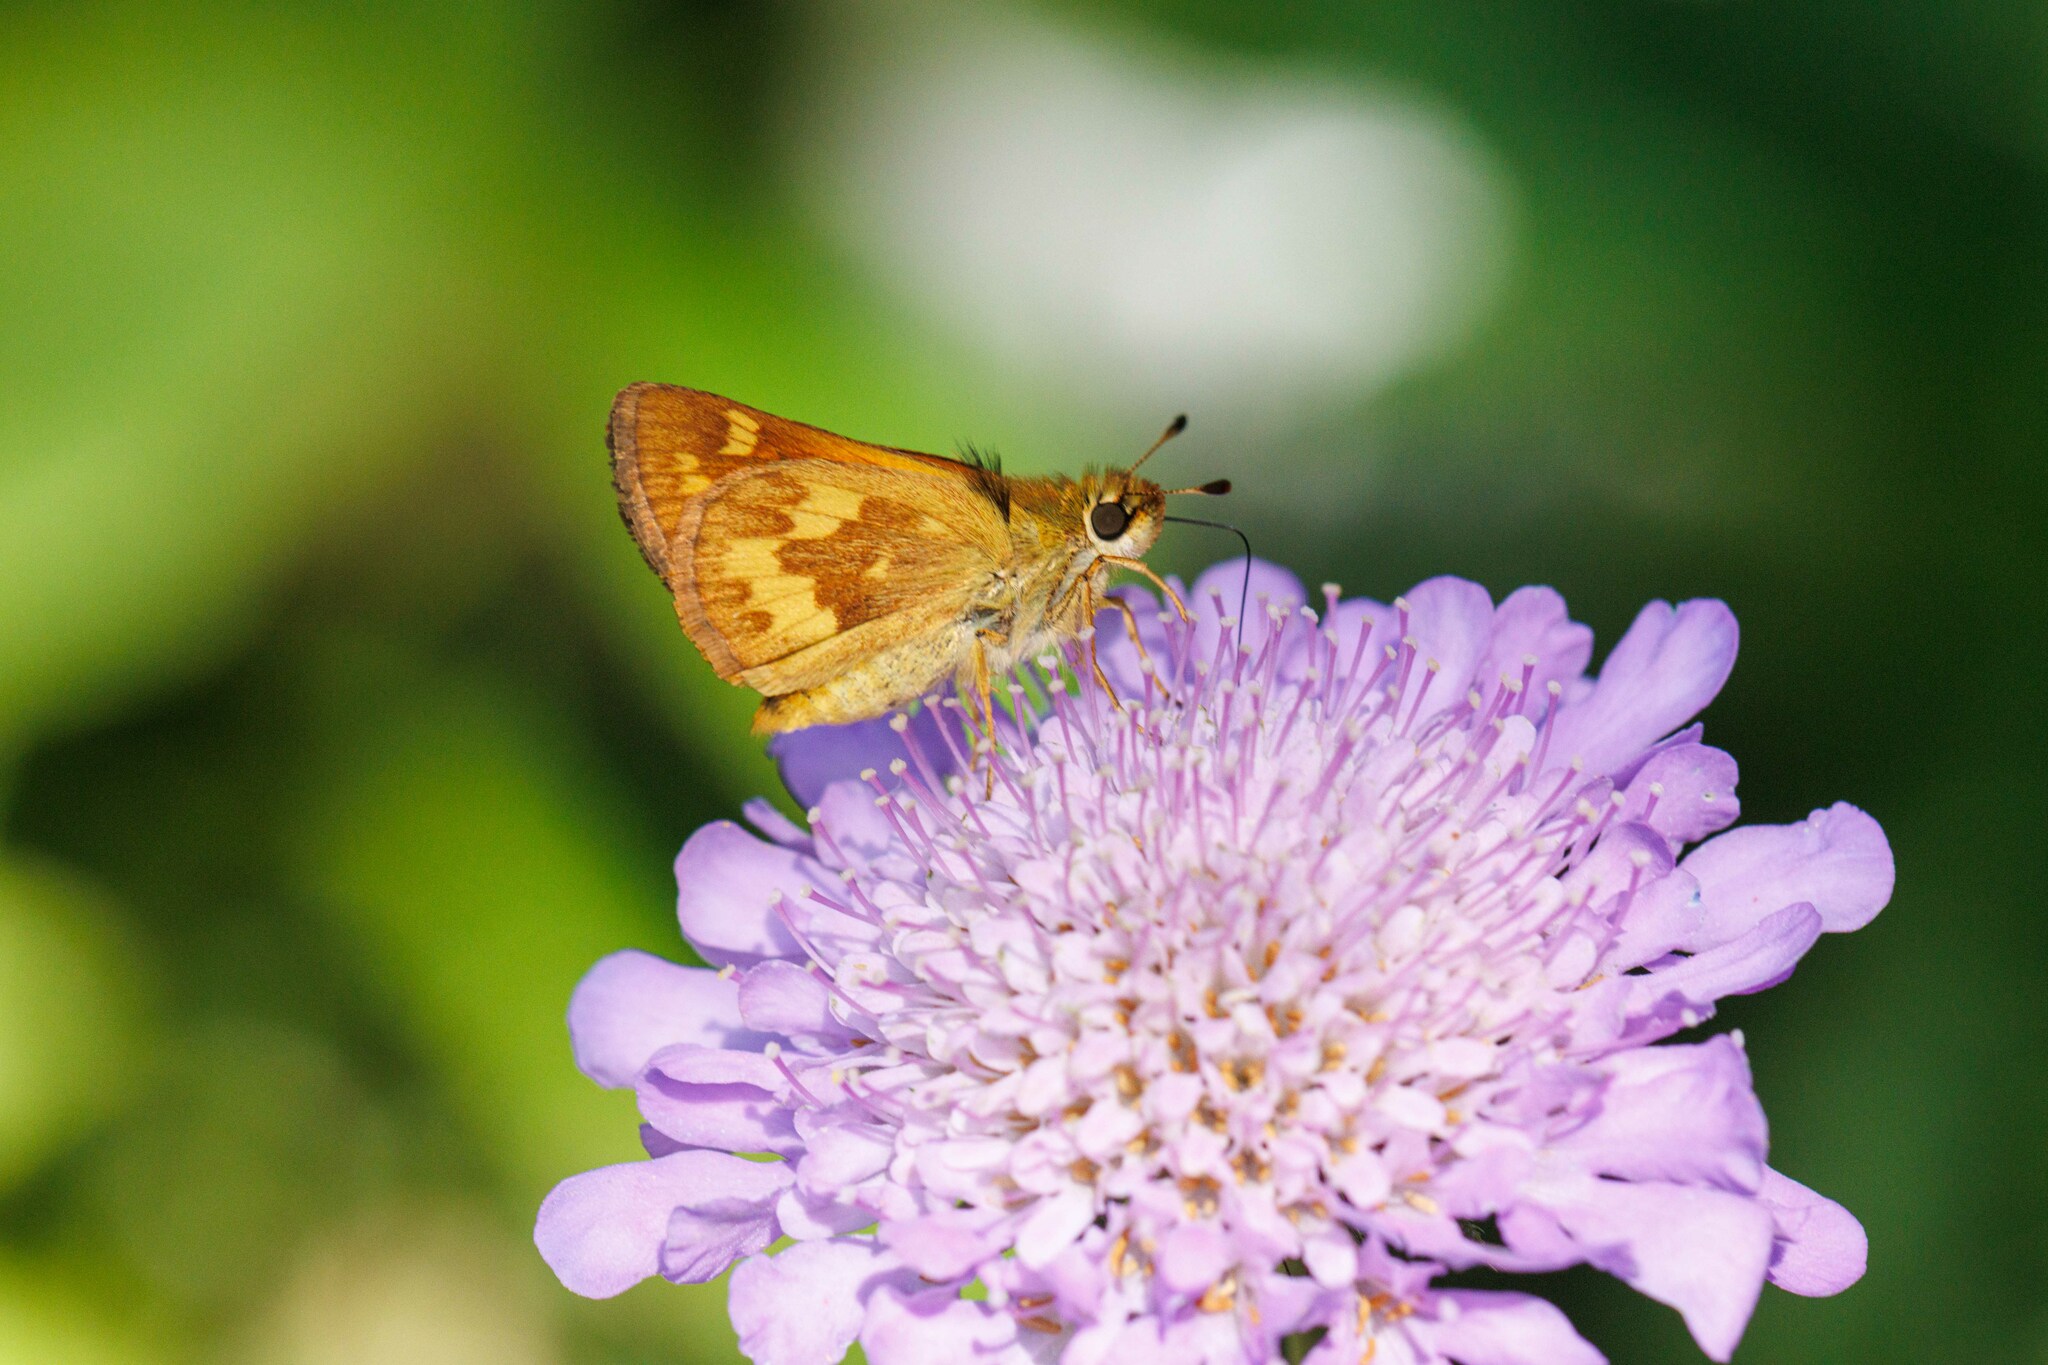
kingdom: Animalia
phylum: Arthropoda
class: Insecta
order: Lepidoptera
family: Hesperiidae
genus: Ochlodes
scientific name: Ochlodes sylvanoides
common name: Woodland skipper
